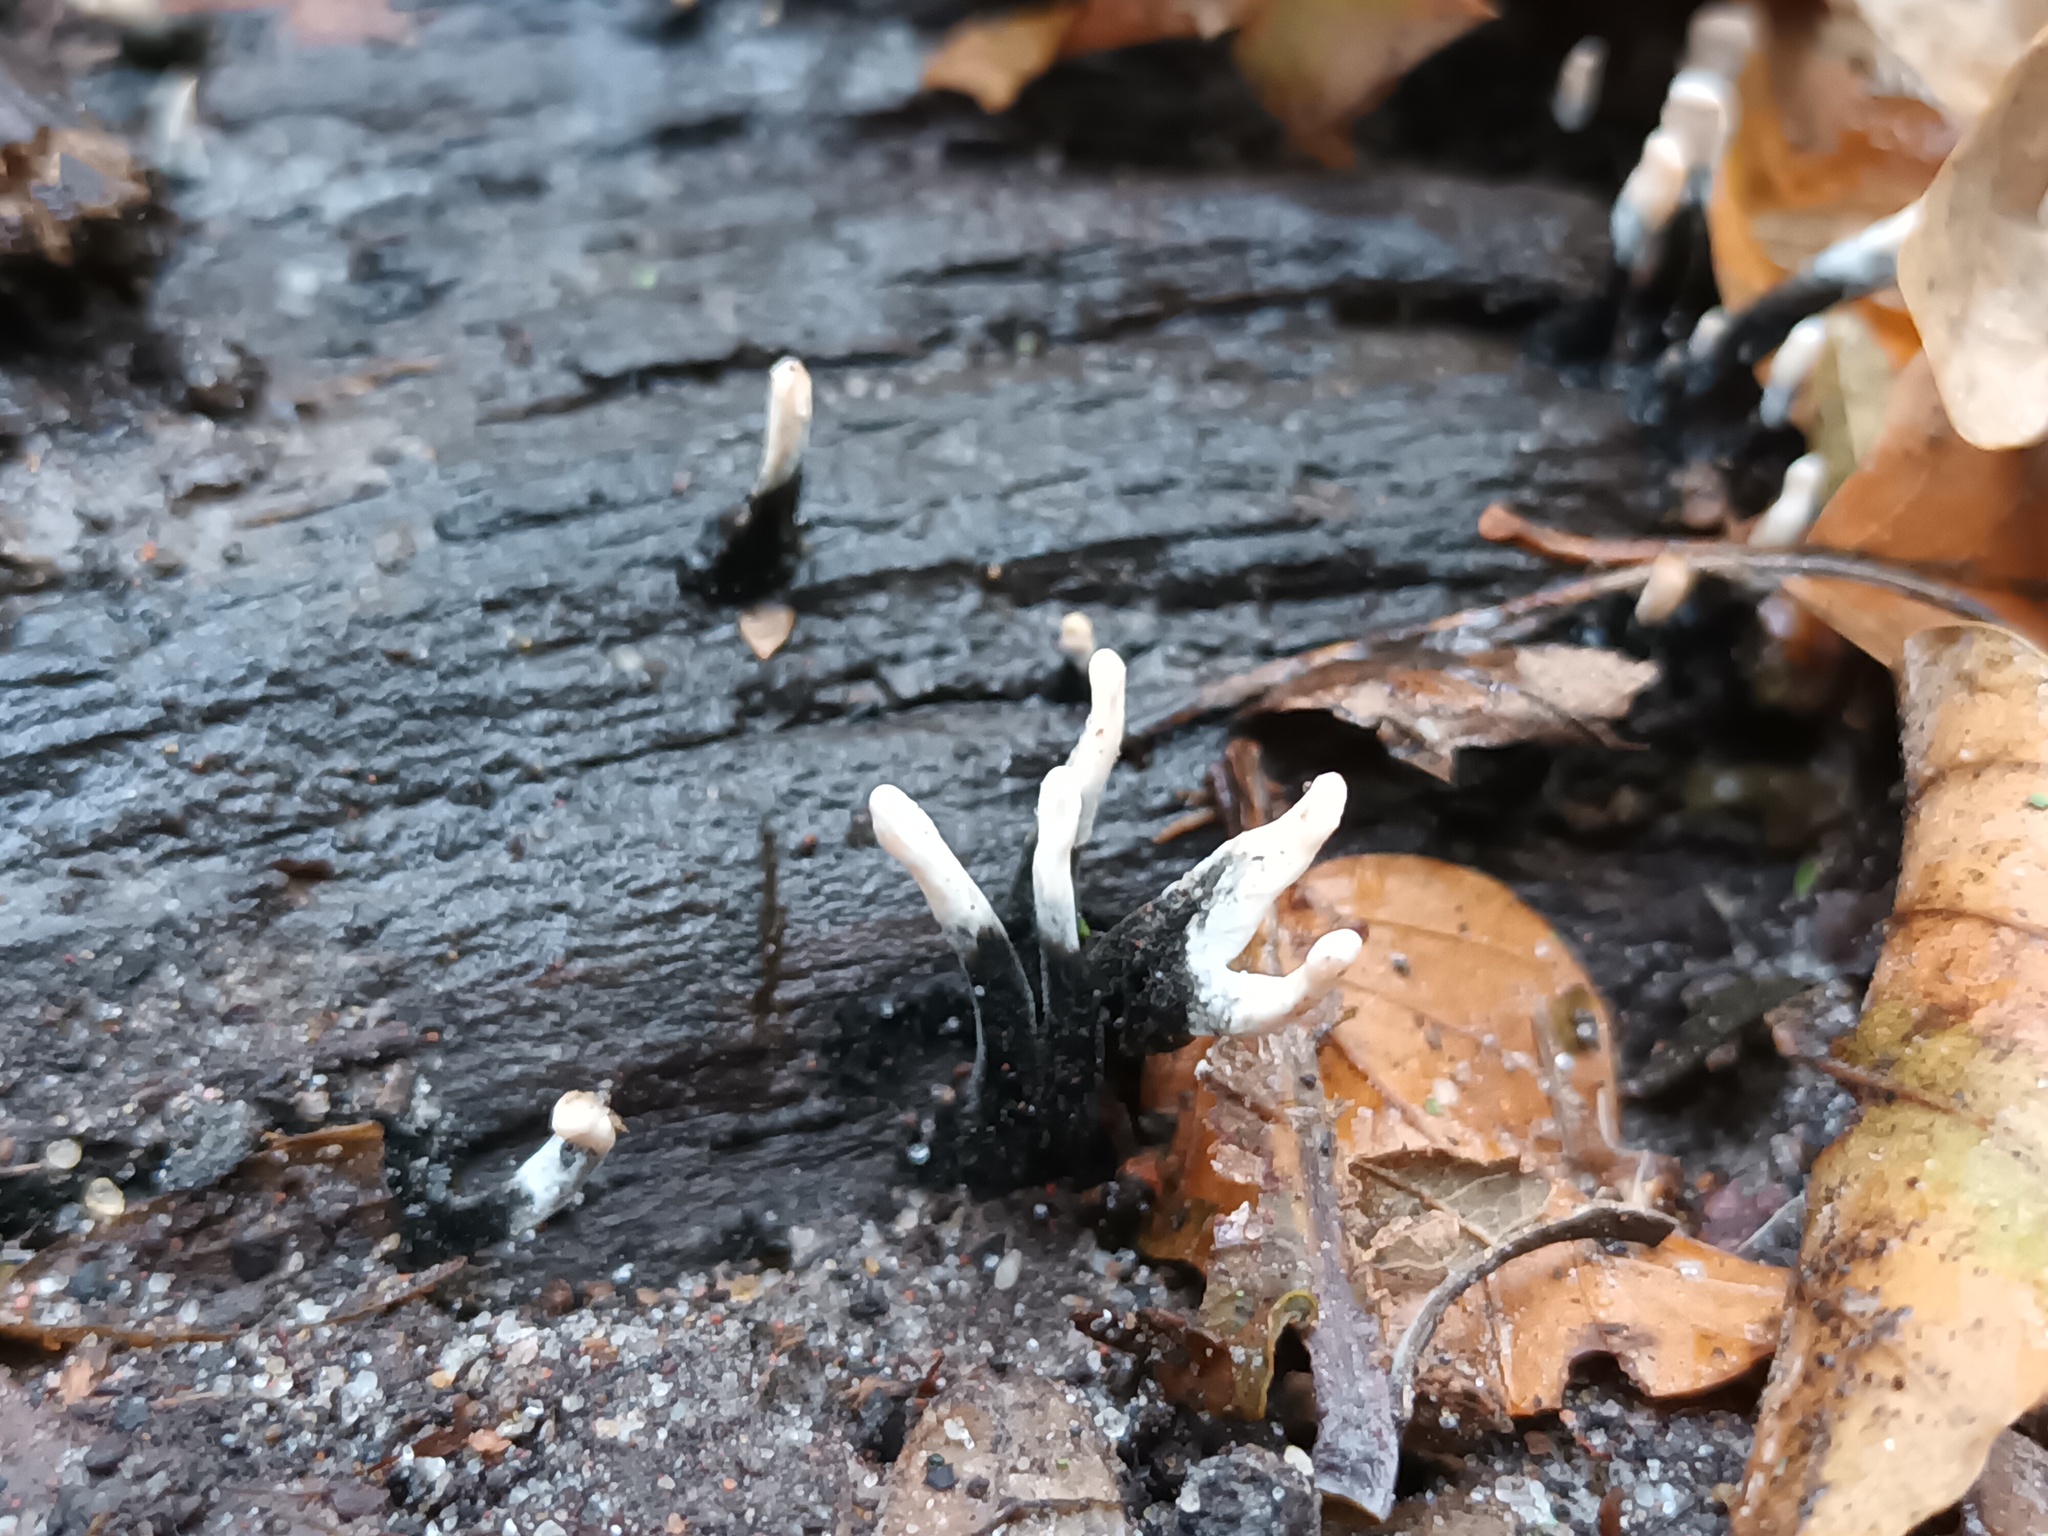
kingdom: Fungi
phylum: Ascomycota
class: Sordariomycetes
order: Xylariales
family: Xylariaceae
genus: Xylaria
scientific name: Xylaria hypoxylon
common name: Candle-snuff fungus
